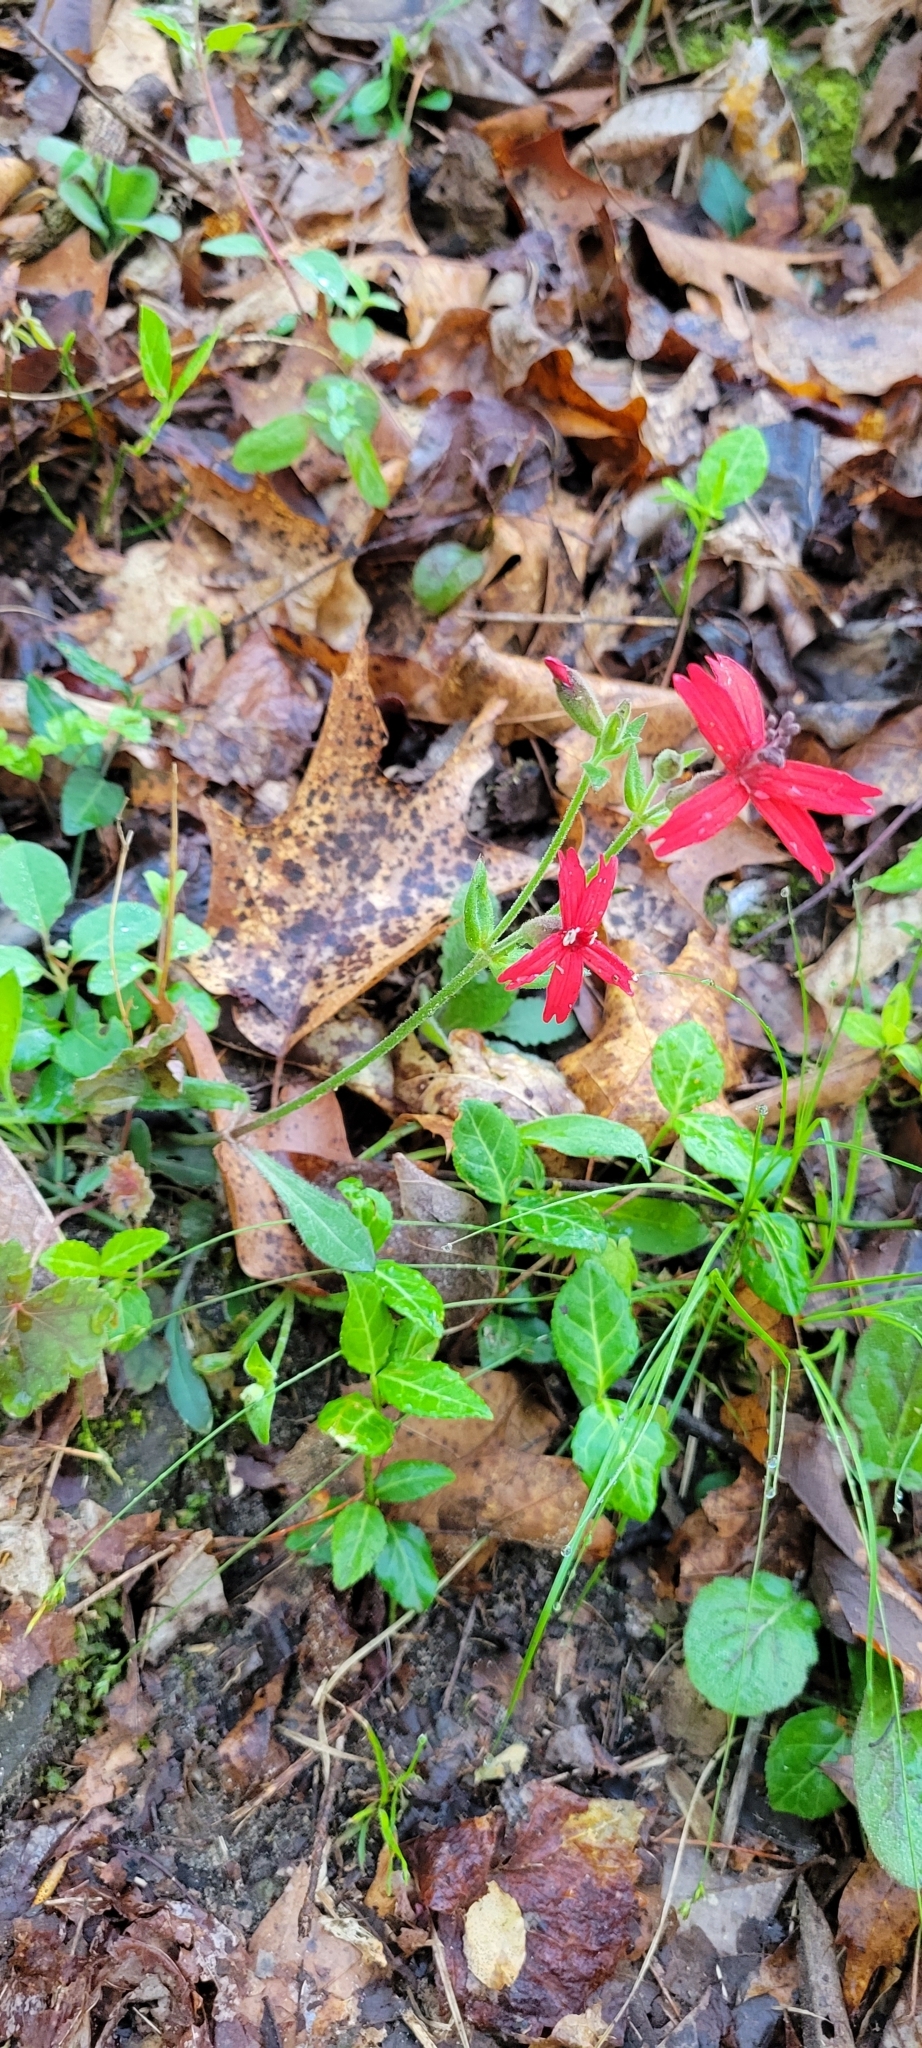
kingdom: Plantae
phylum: Tracheophyta
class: Magnoliopsida
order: Caryophyllales
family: Caryophyllaceae
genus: Silene
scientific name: Silene virginica
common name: Fire-pink
